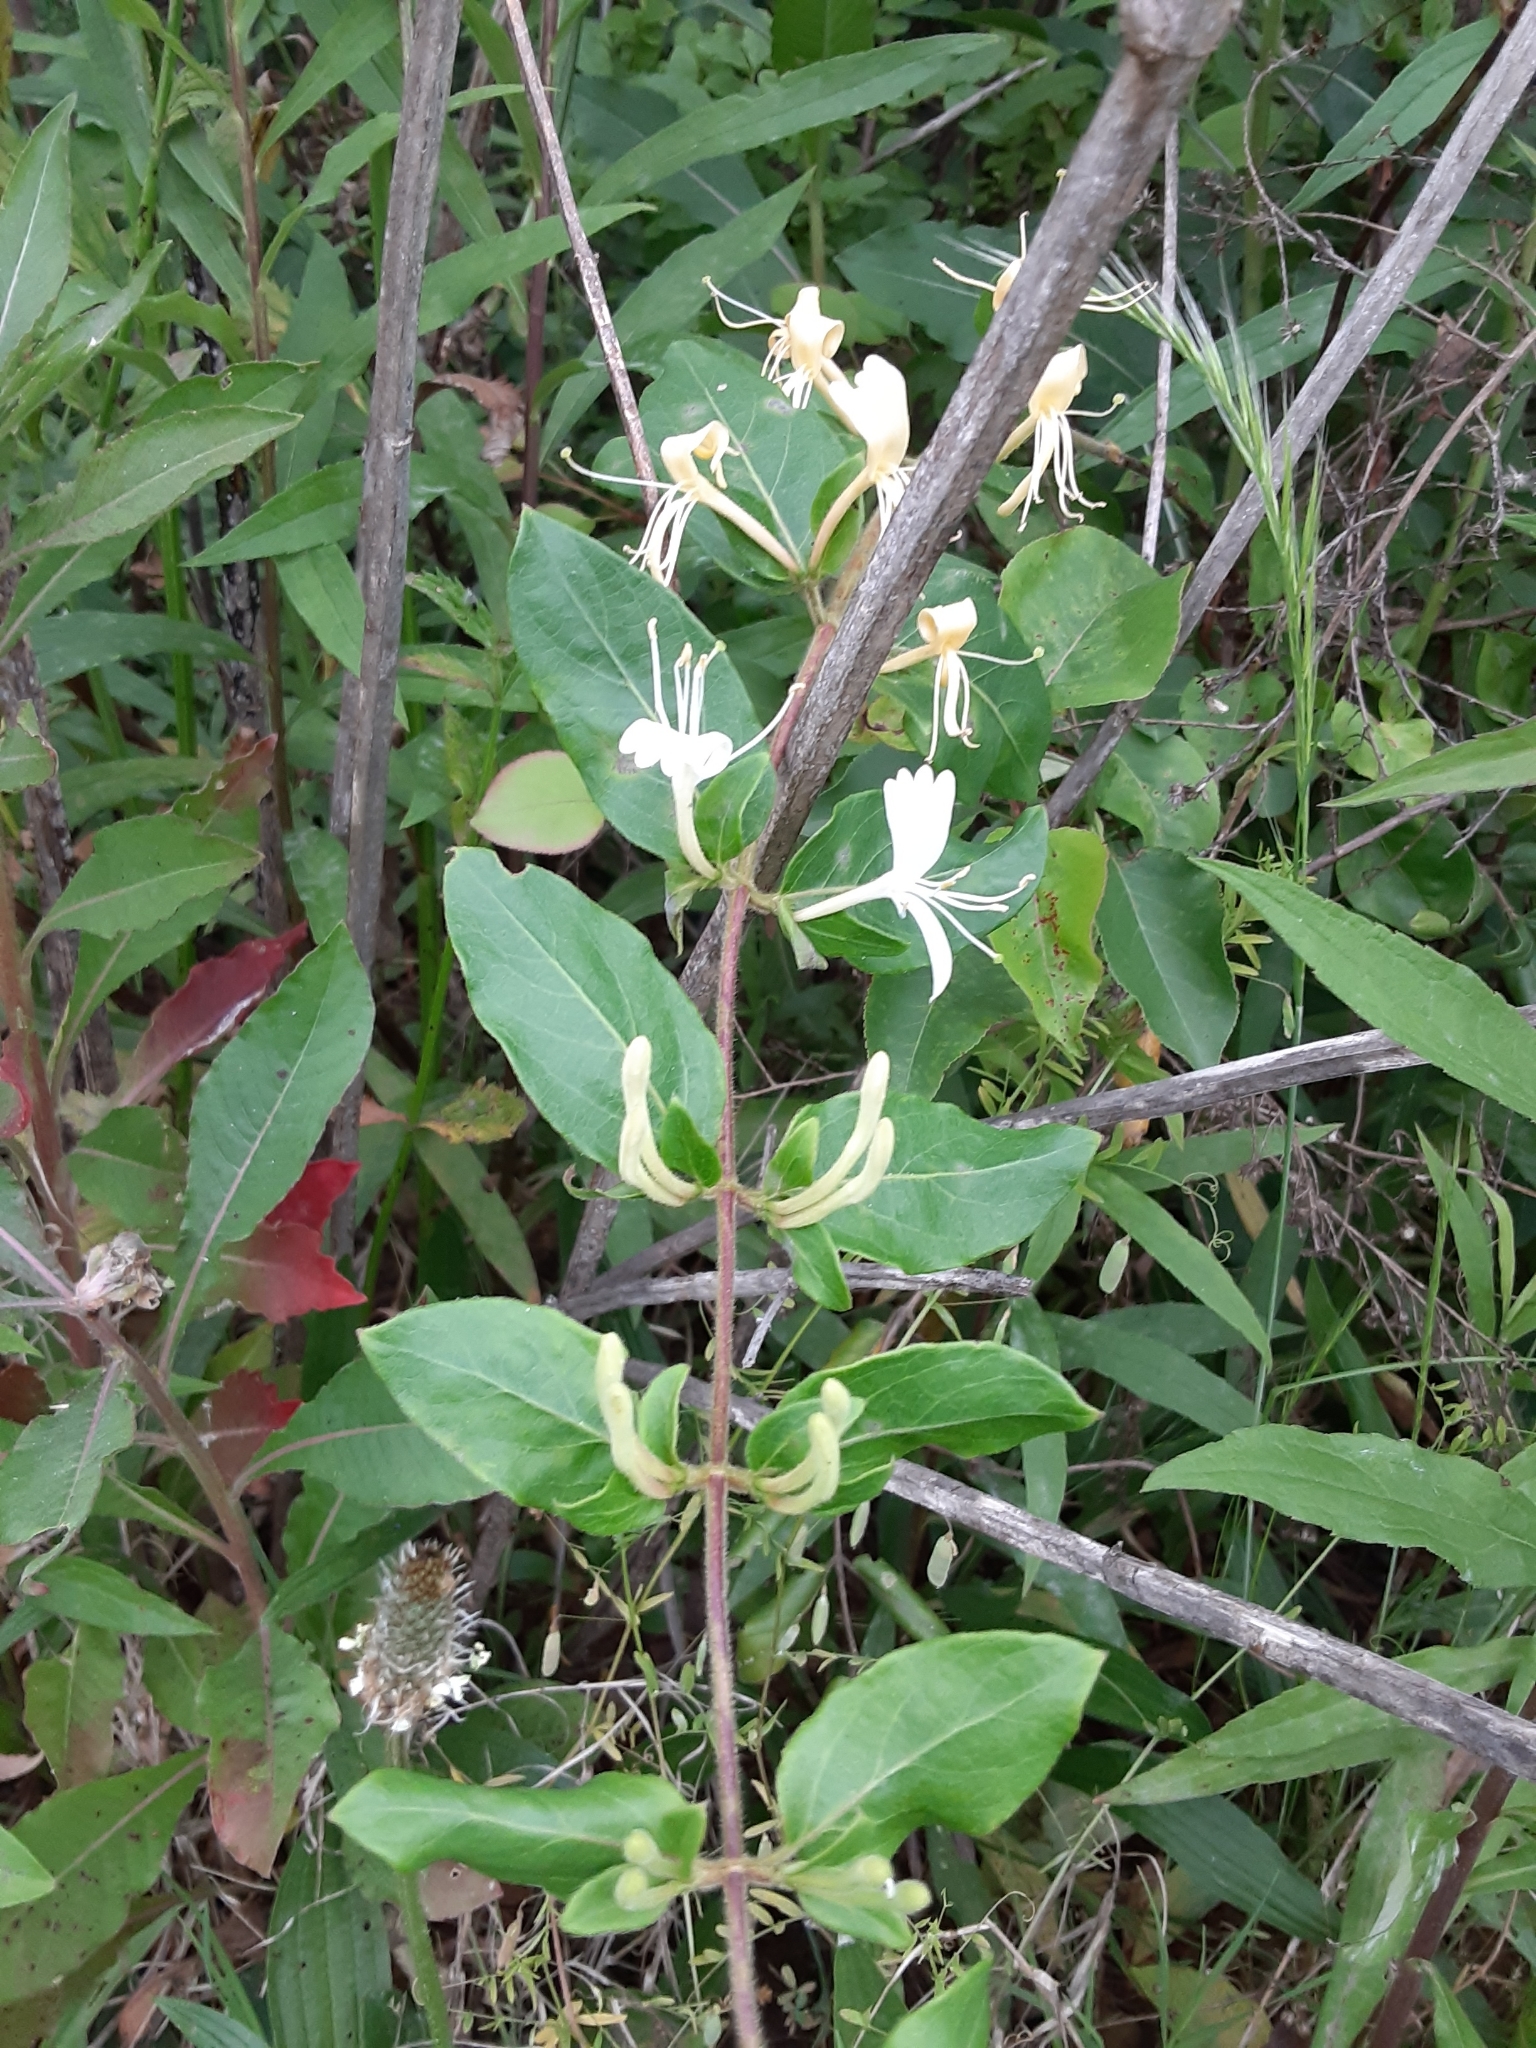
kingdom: Plantae
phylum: Tracheophyta
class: Magnoliopsida
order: Dipsacales
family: Caprifoliaceae
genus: Lonicera
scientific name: Lonicera japonica
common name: Japanese honeysuckle
